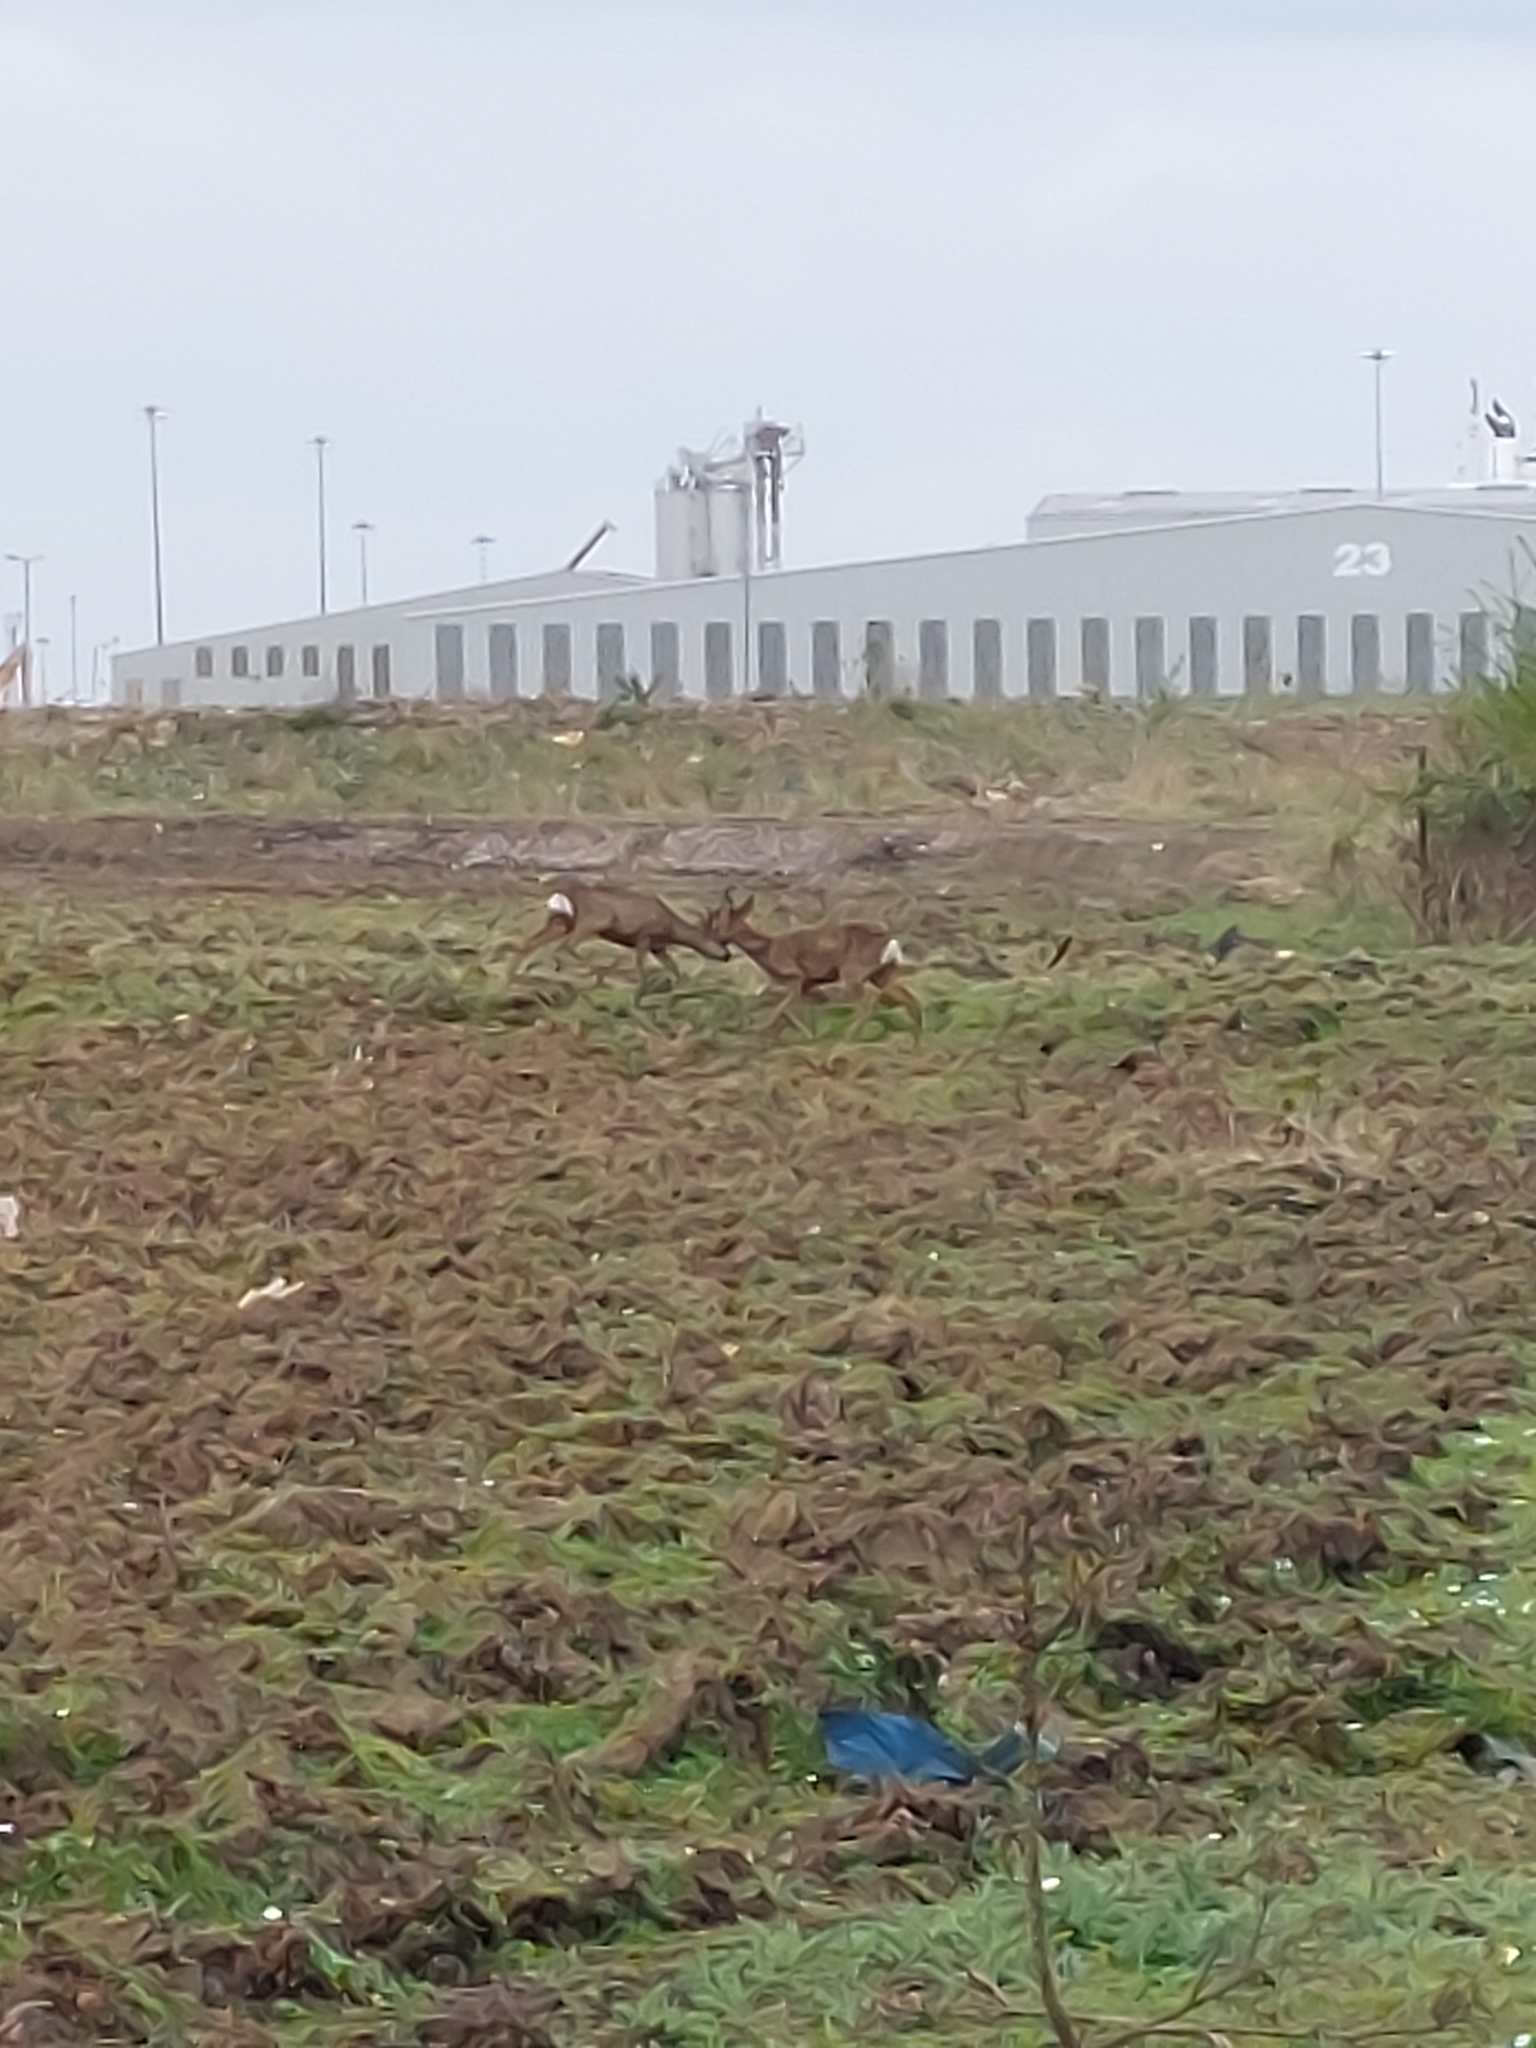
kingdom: Animalia
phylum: Chordata
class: Mammalia
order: Artiodactyla
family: Cervidae
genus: Capreolus
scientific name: Capreolus capreolus
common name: Western roe deer
